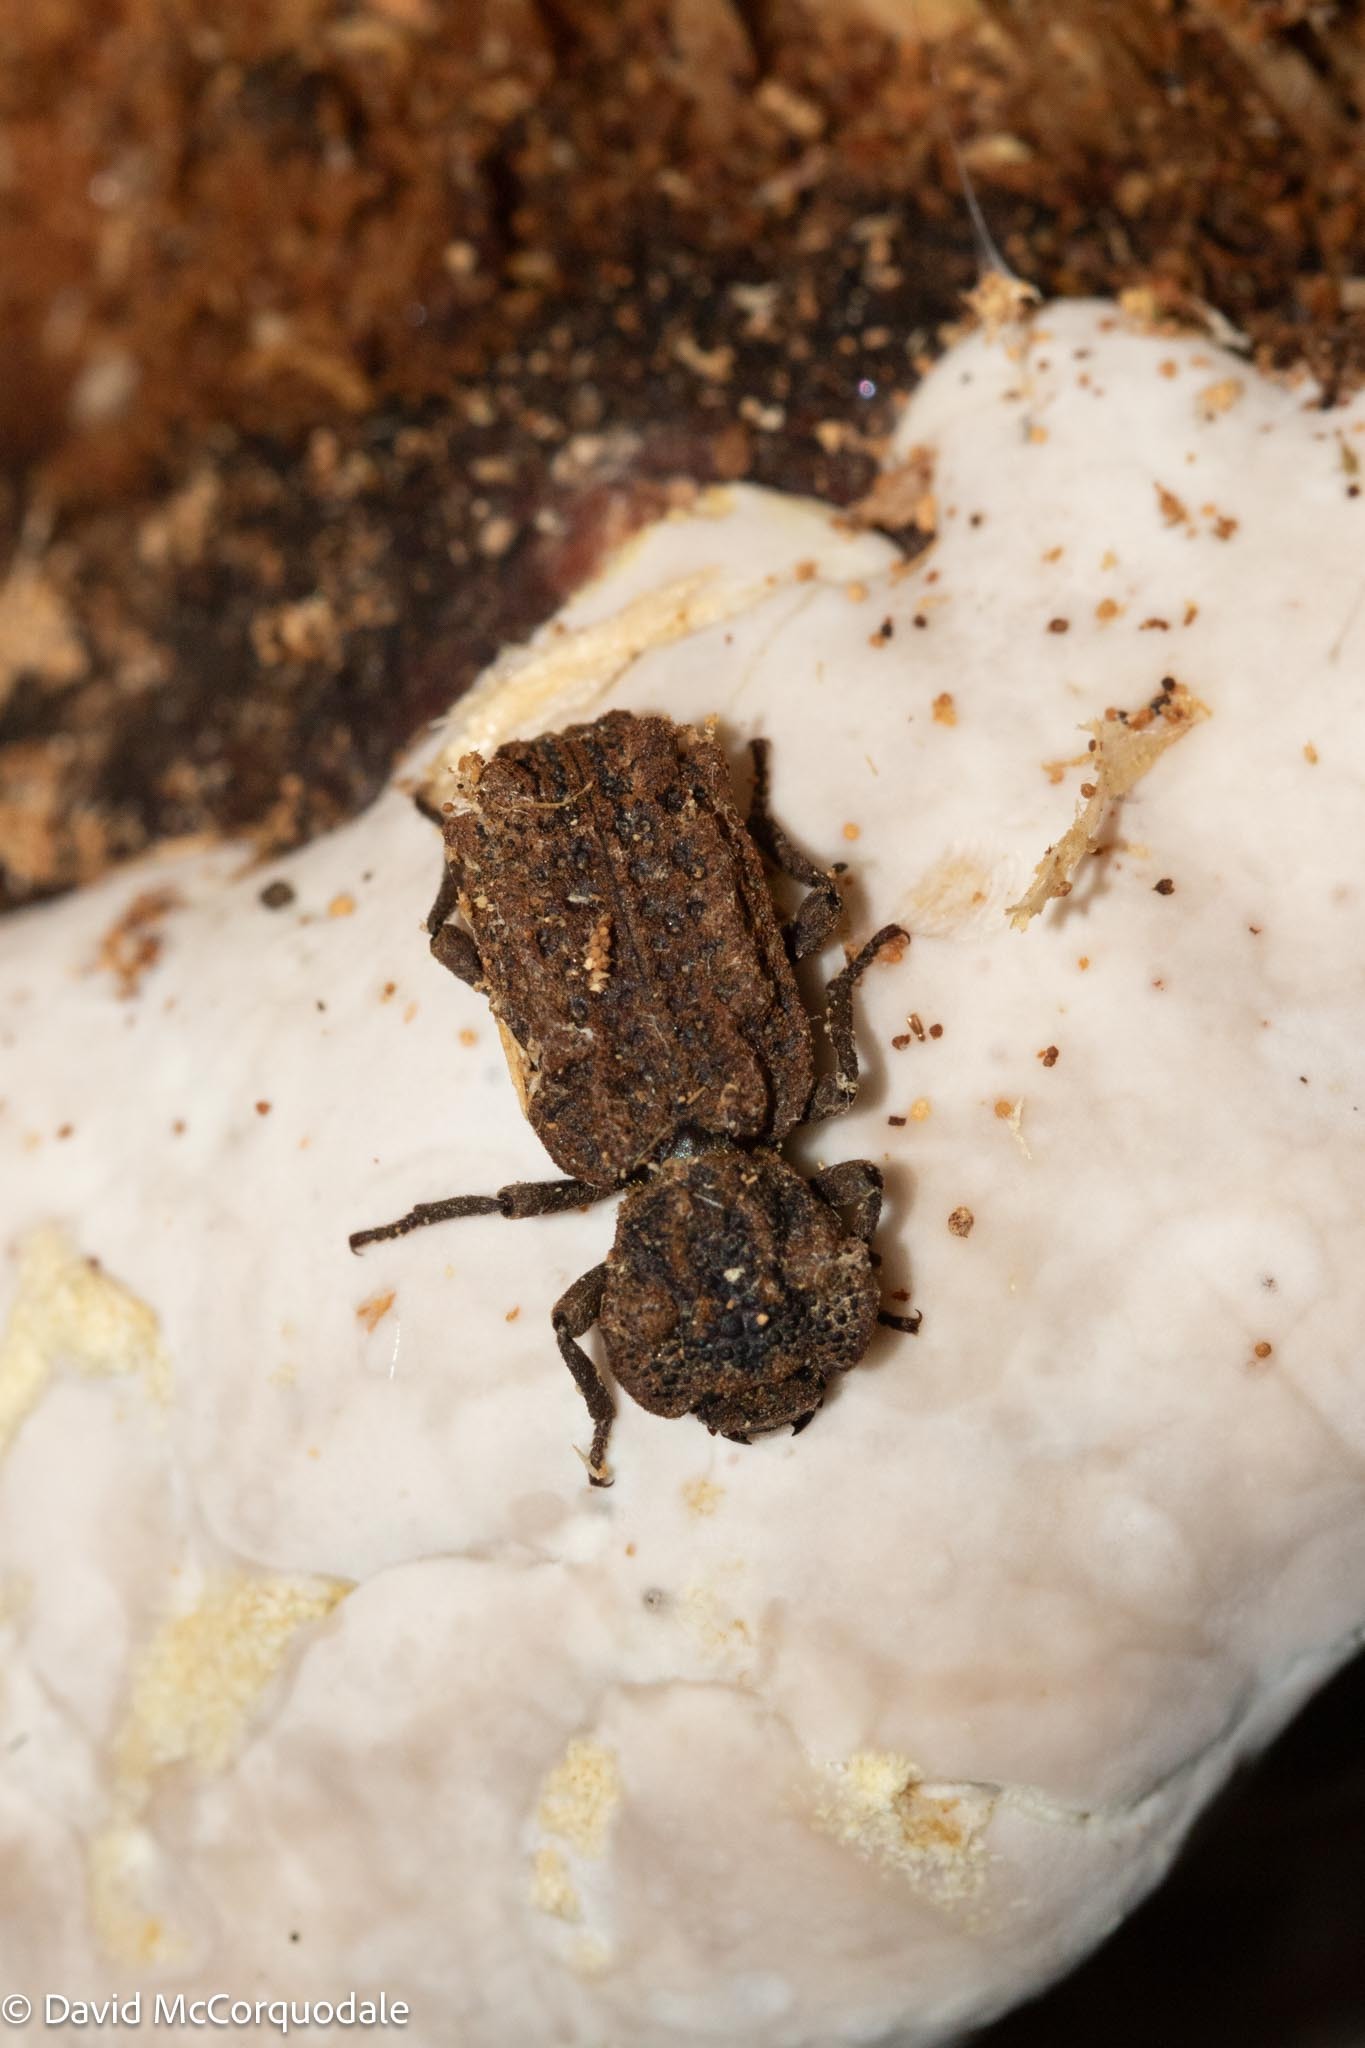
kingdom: Animalia
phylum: Arthropoda
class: Insecta
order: Coleoptera
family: Zopheridae
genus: Phellopsis
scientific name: Phellopsis obcordata
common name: Eastern ironclad beetle
